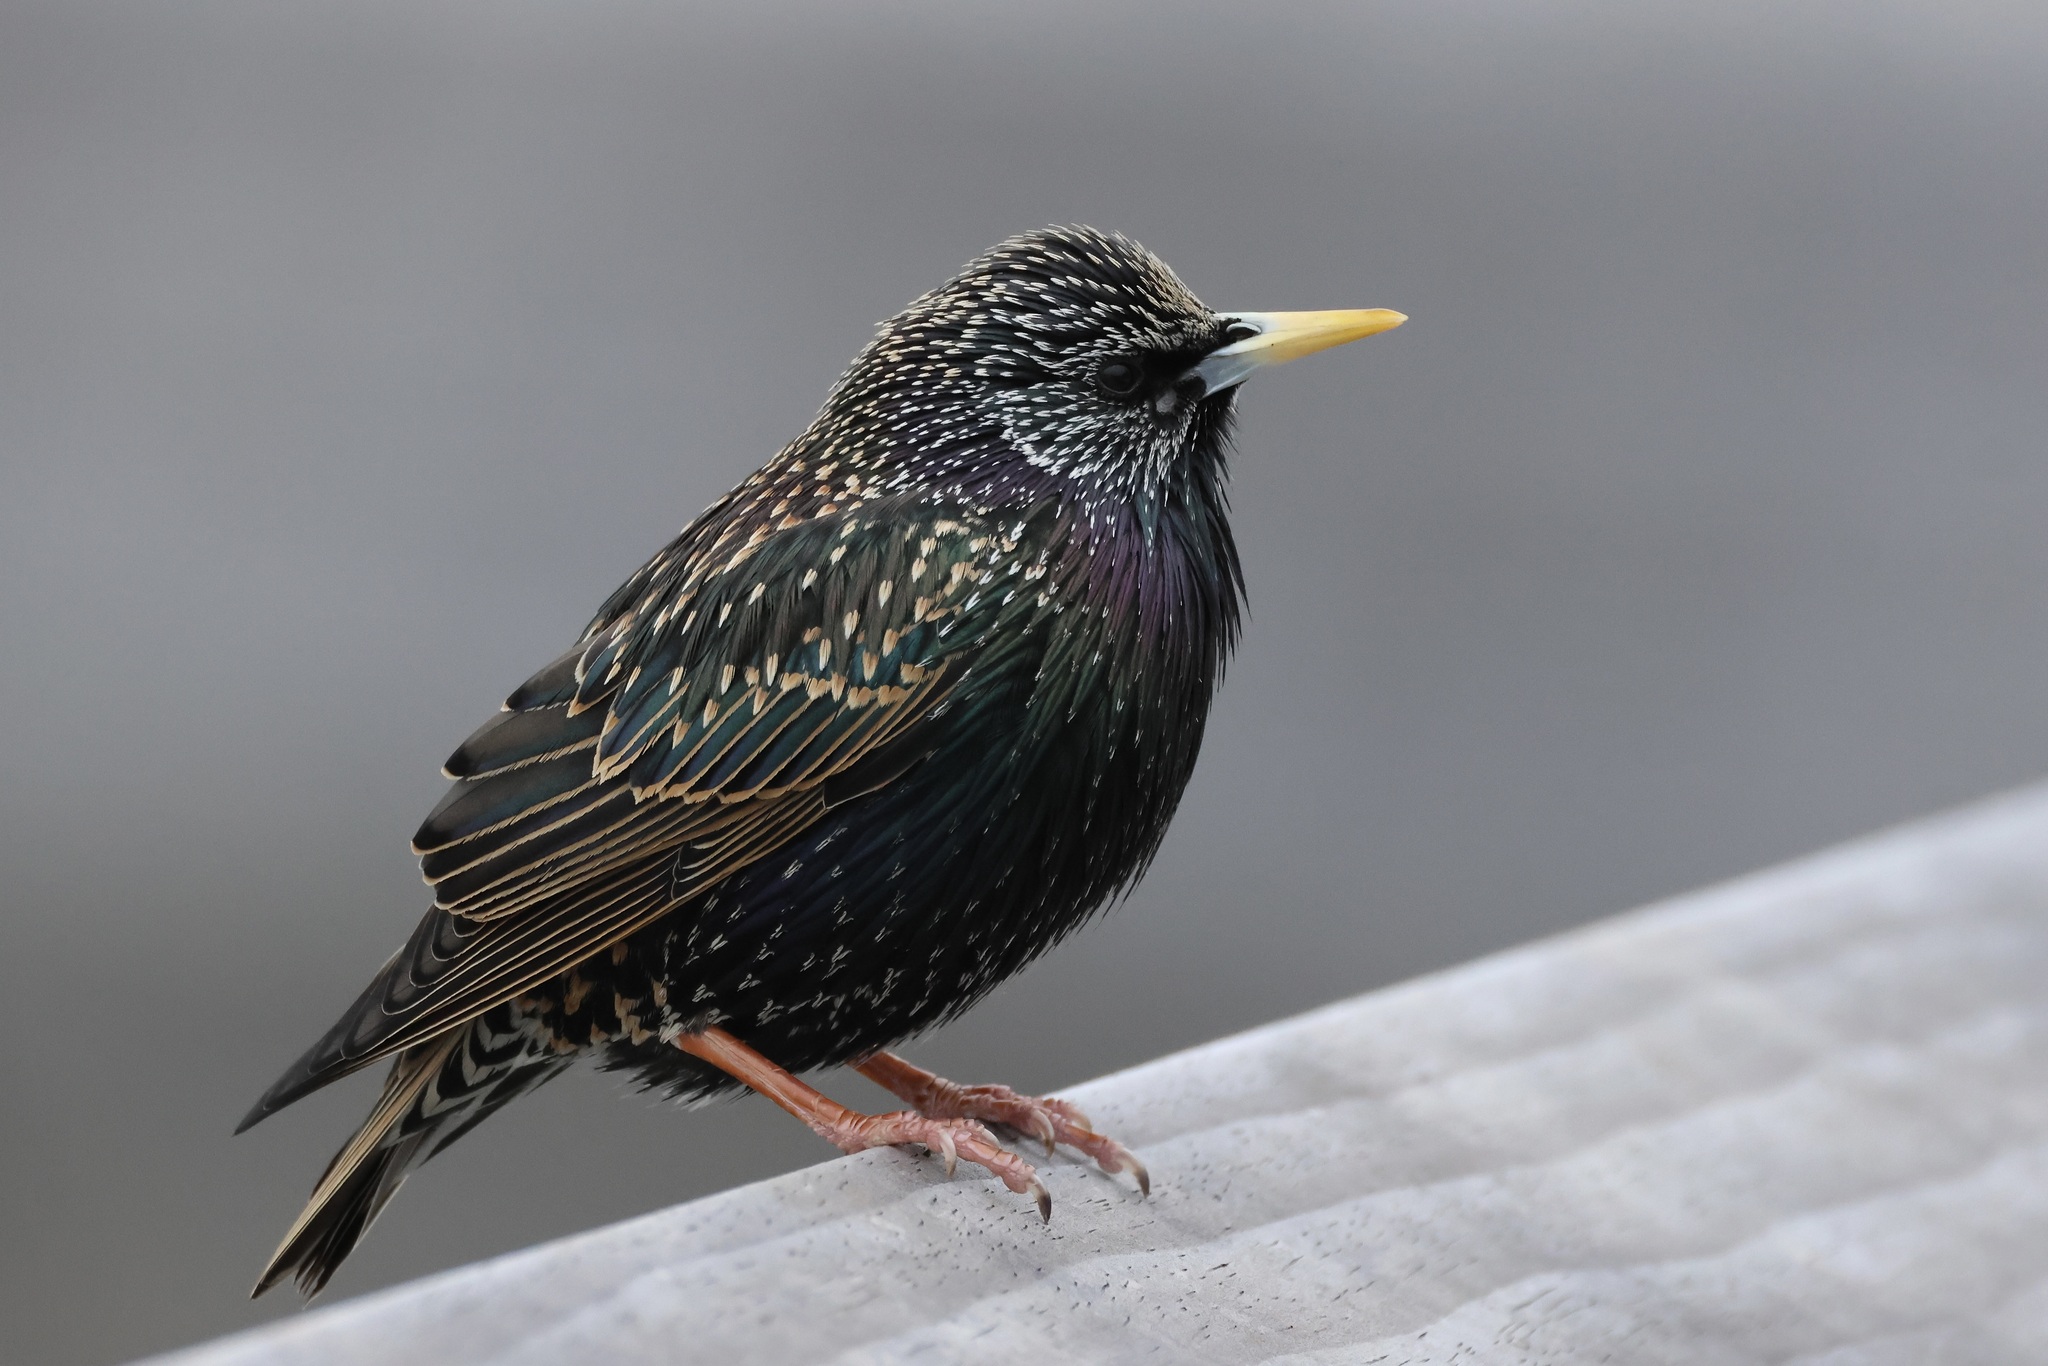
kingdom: Animalia
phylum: Chordata
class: Aves
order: Passeriformes
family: Sturnidae
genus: Sturnus
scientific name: Sturnus vulgaris
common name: Common starling
